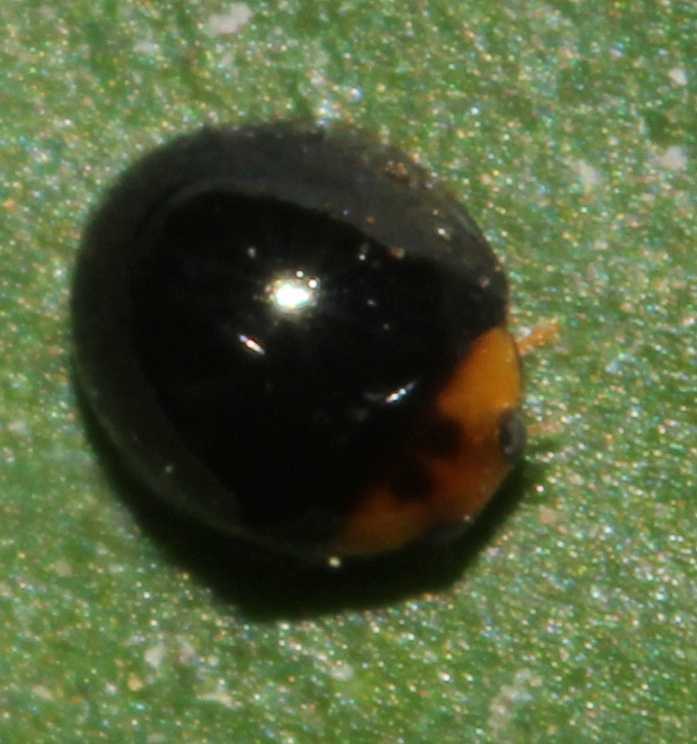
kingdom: Animalia
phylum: Arthropoda
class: Insecta
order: Coleoptera
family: Coccinellidae
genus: Chilocorus
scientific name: Chilocorus nigritus
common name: Ladybird beetle
